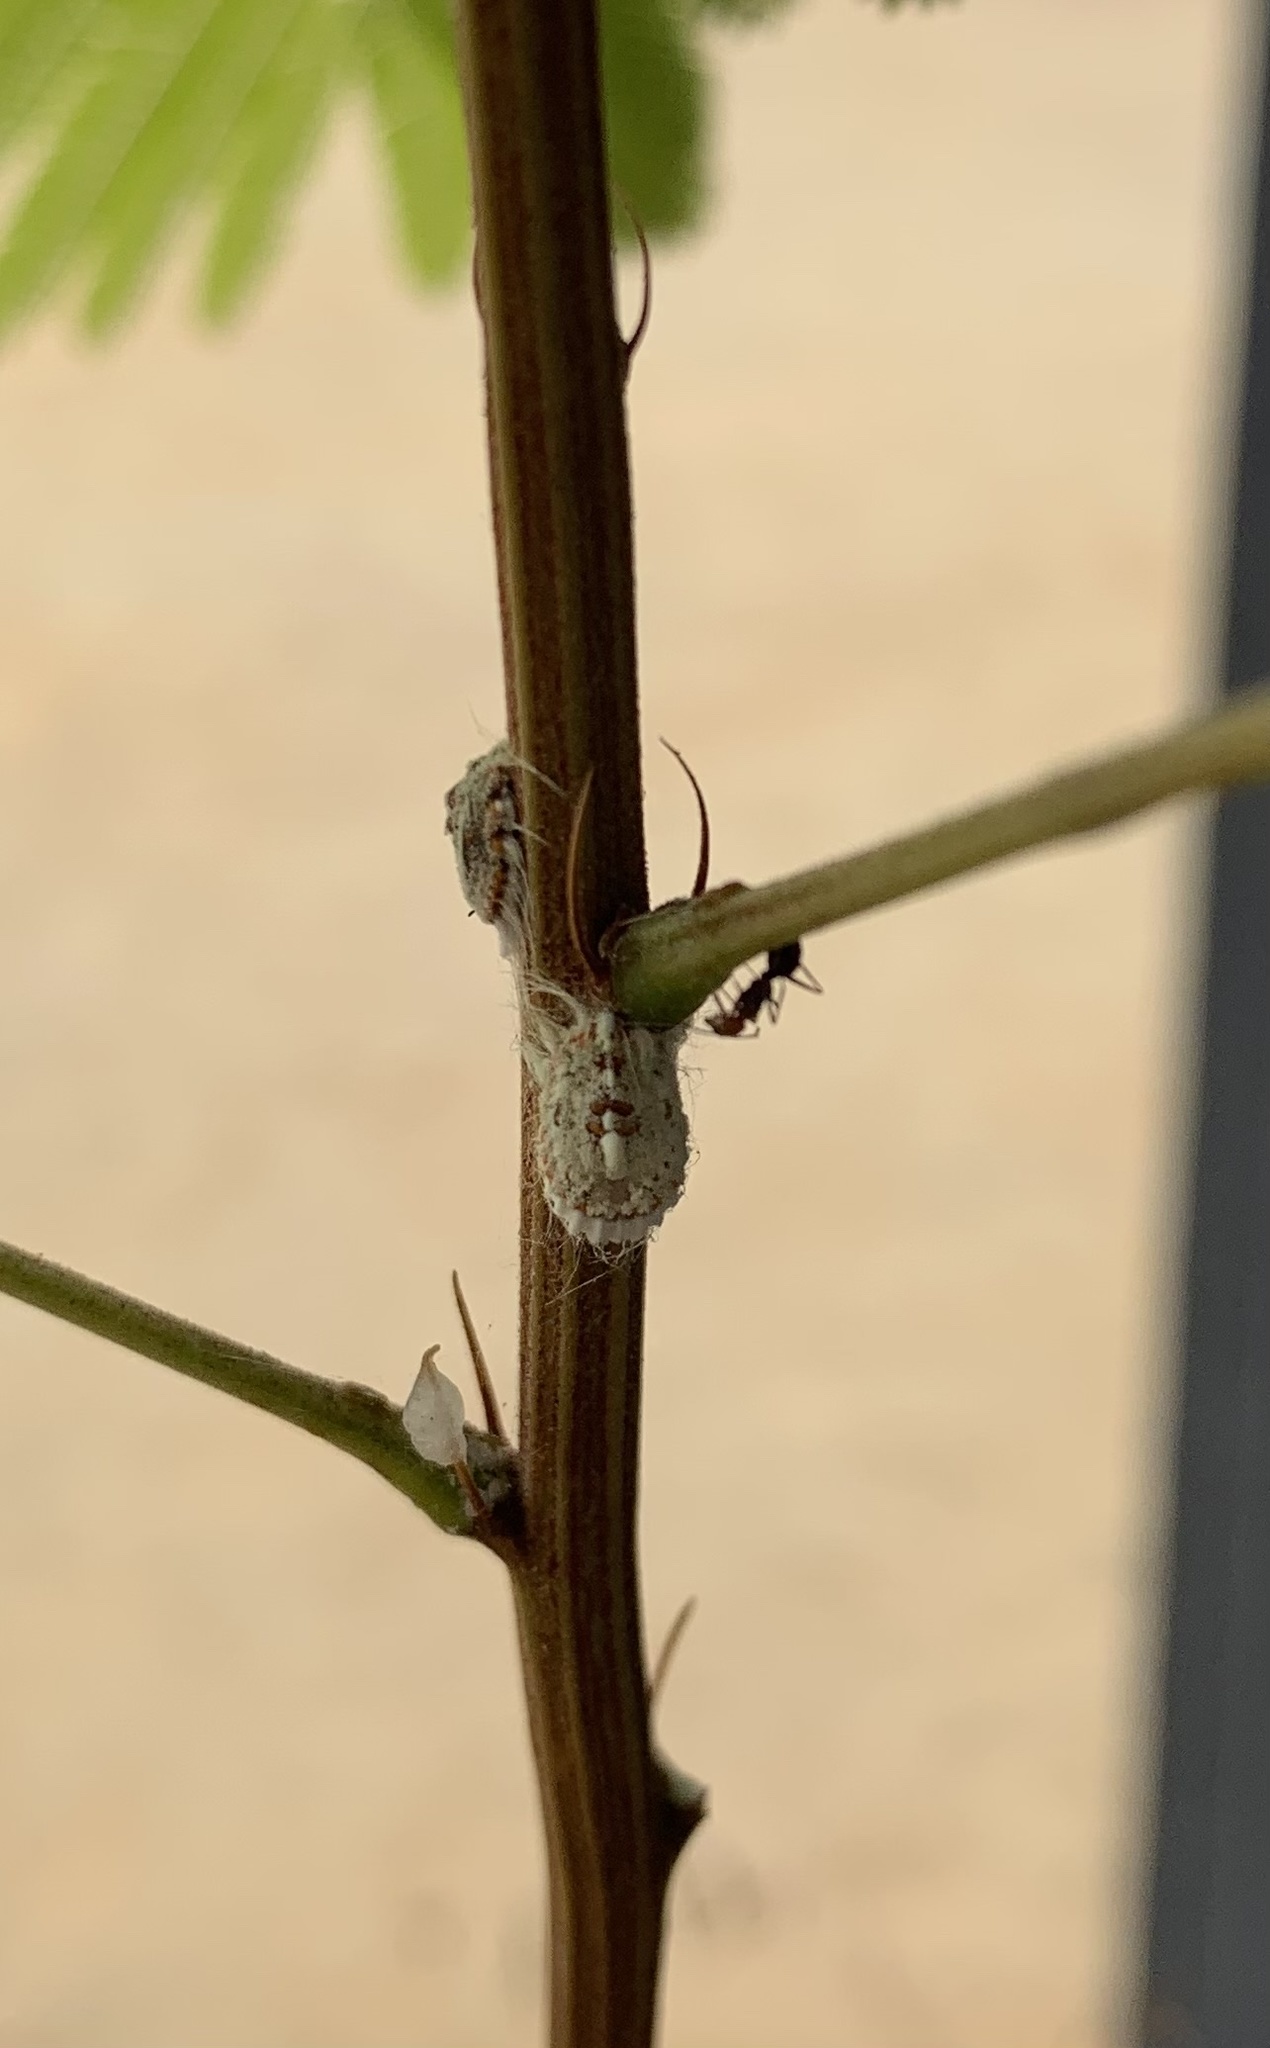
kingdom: Animalia
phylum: Arthropoda
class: Insecta
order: Hemiptera
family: Margarodidae
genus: Icerya
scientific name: Icerya purchasi
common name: Cottony cushion scale
